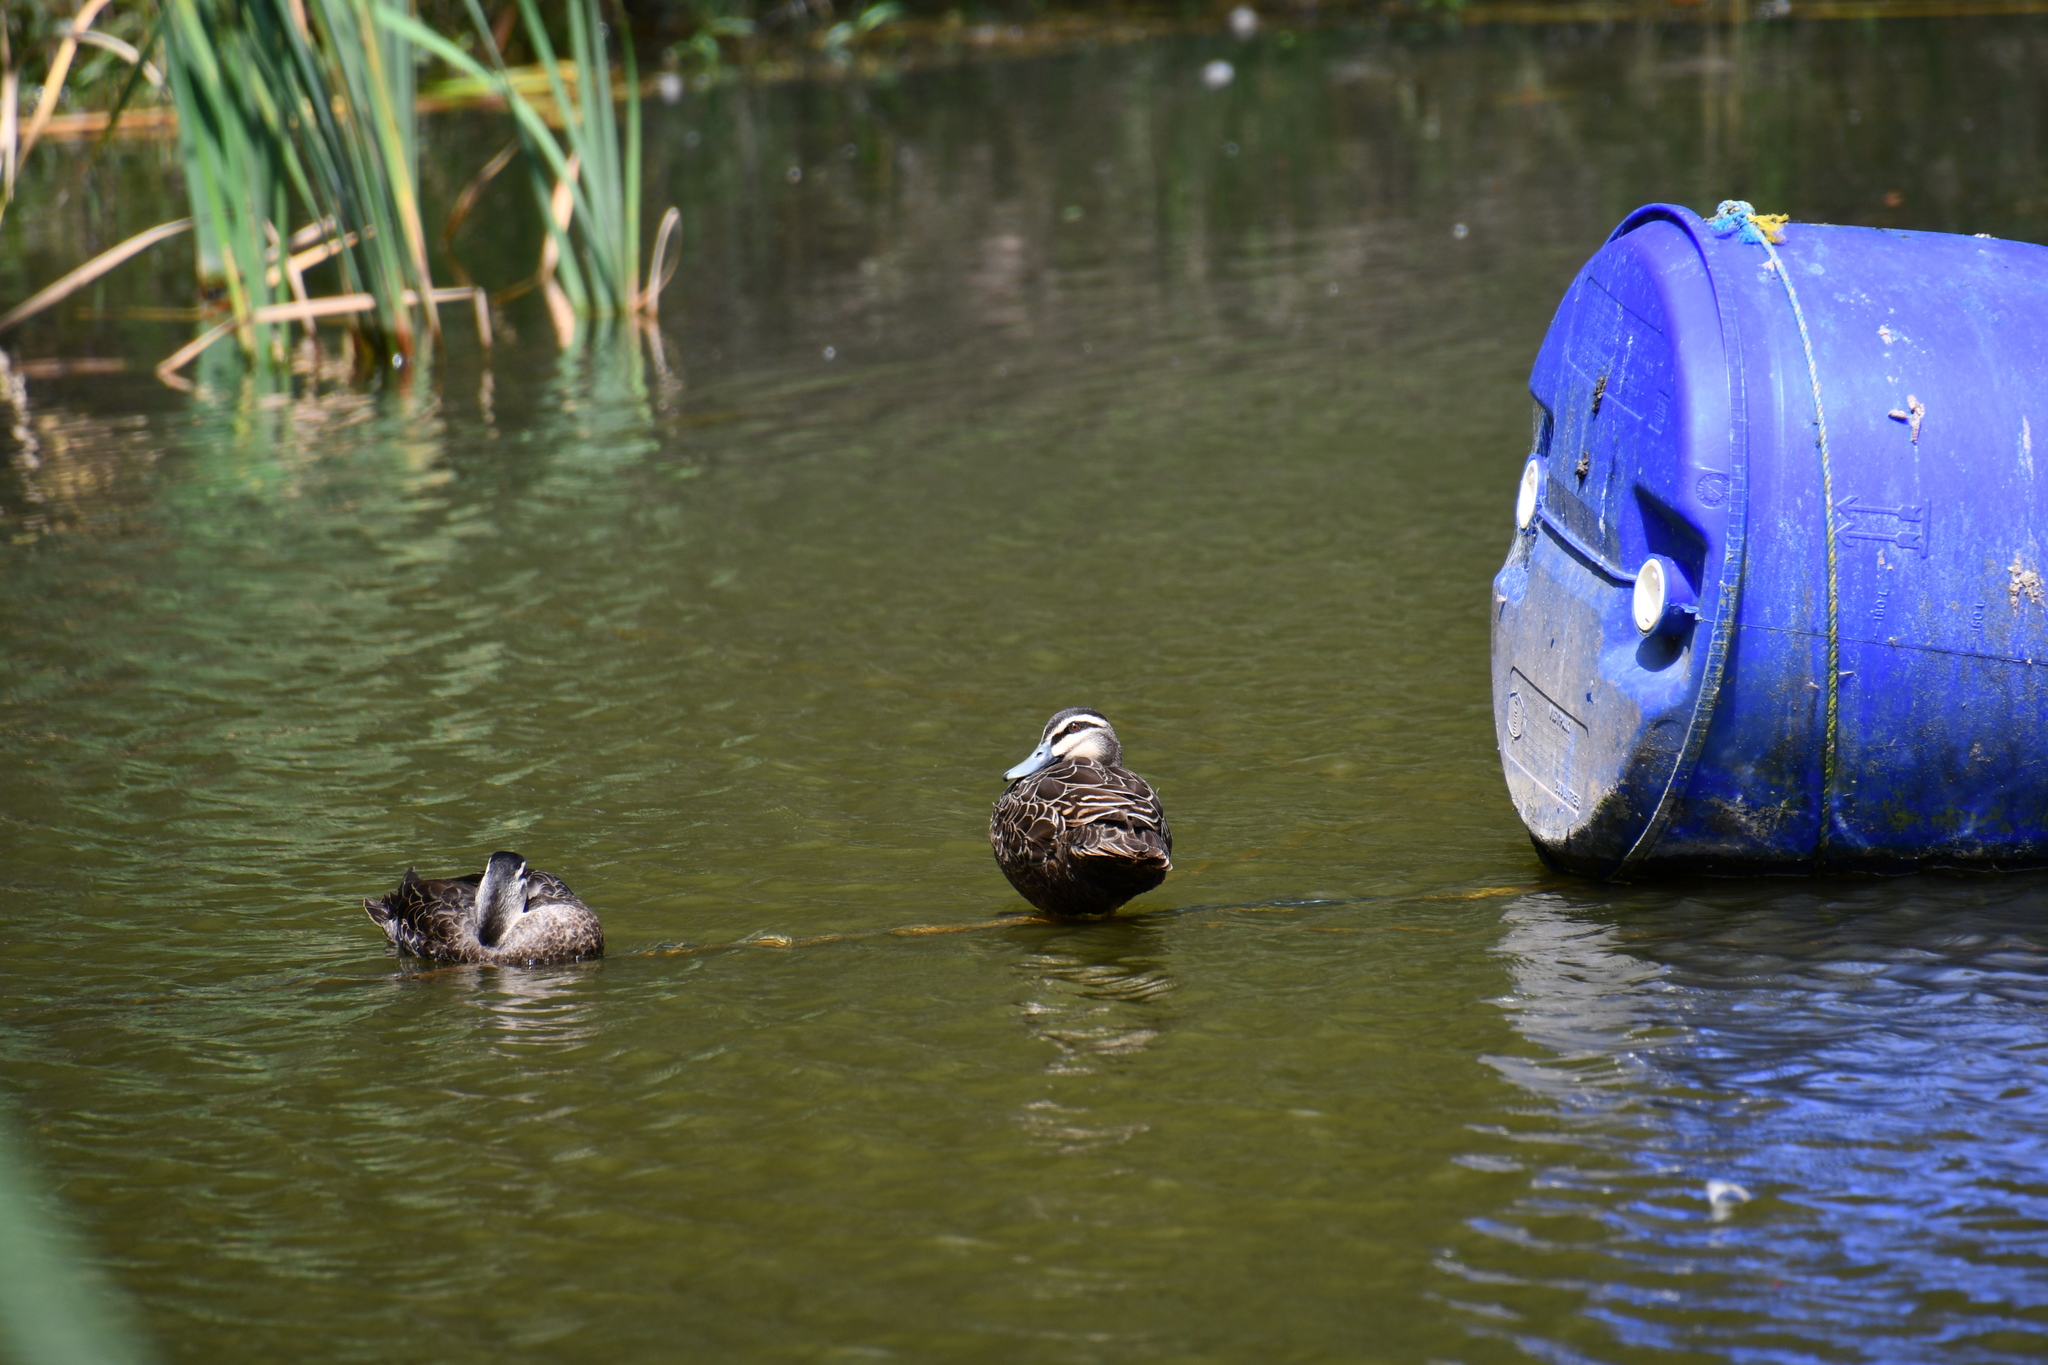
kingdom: Animalia
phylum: Chordata
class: Aves
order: Anseriformes
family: Anatidae
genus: Anas
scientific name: Anas superciliosa
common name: Pacific black duck
